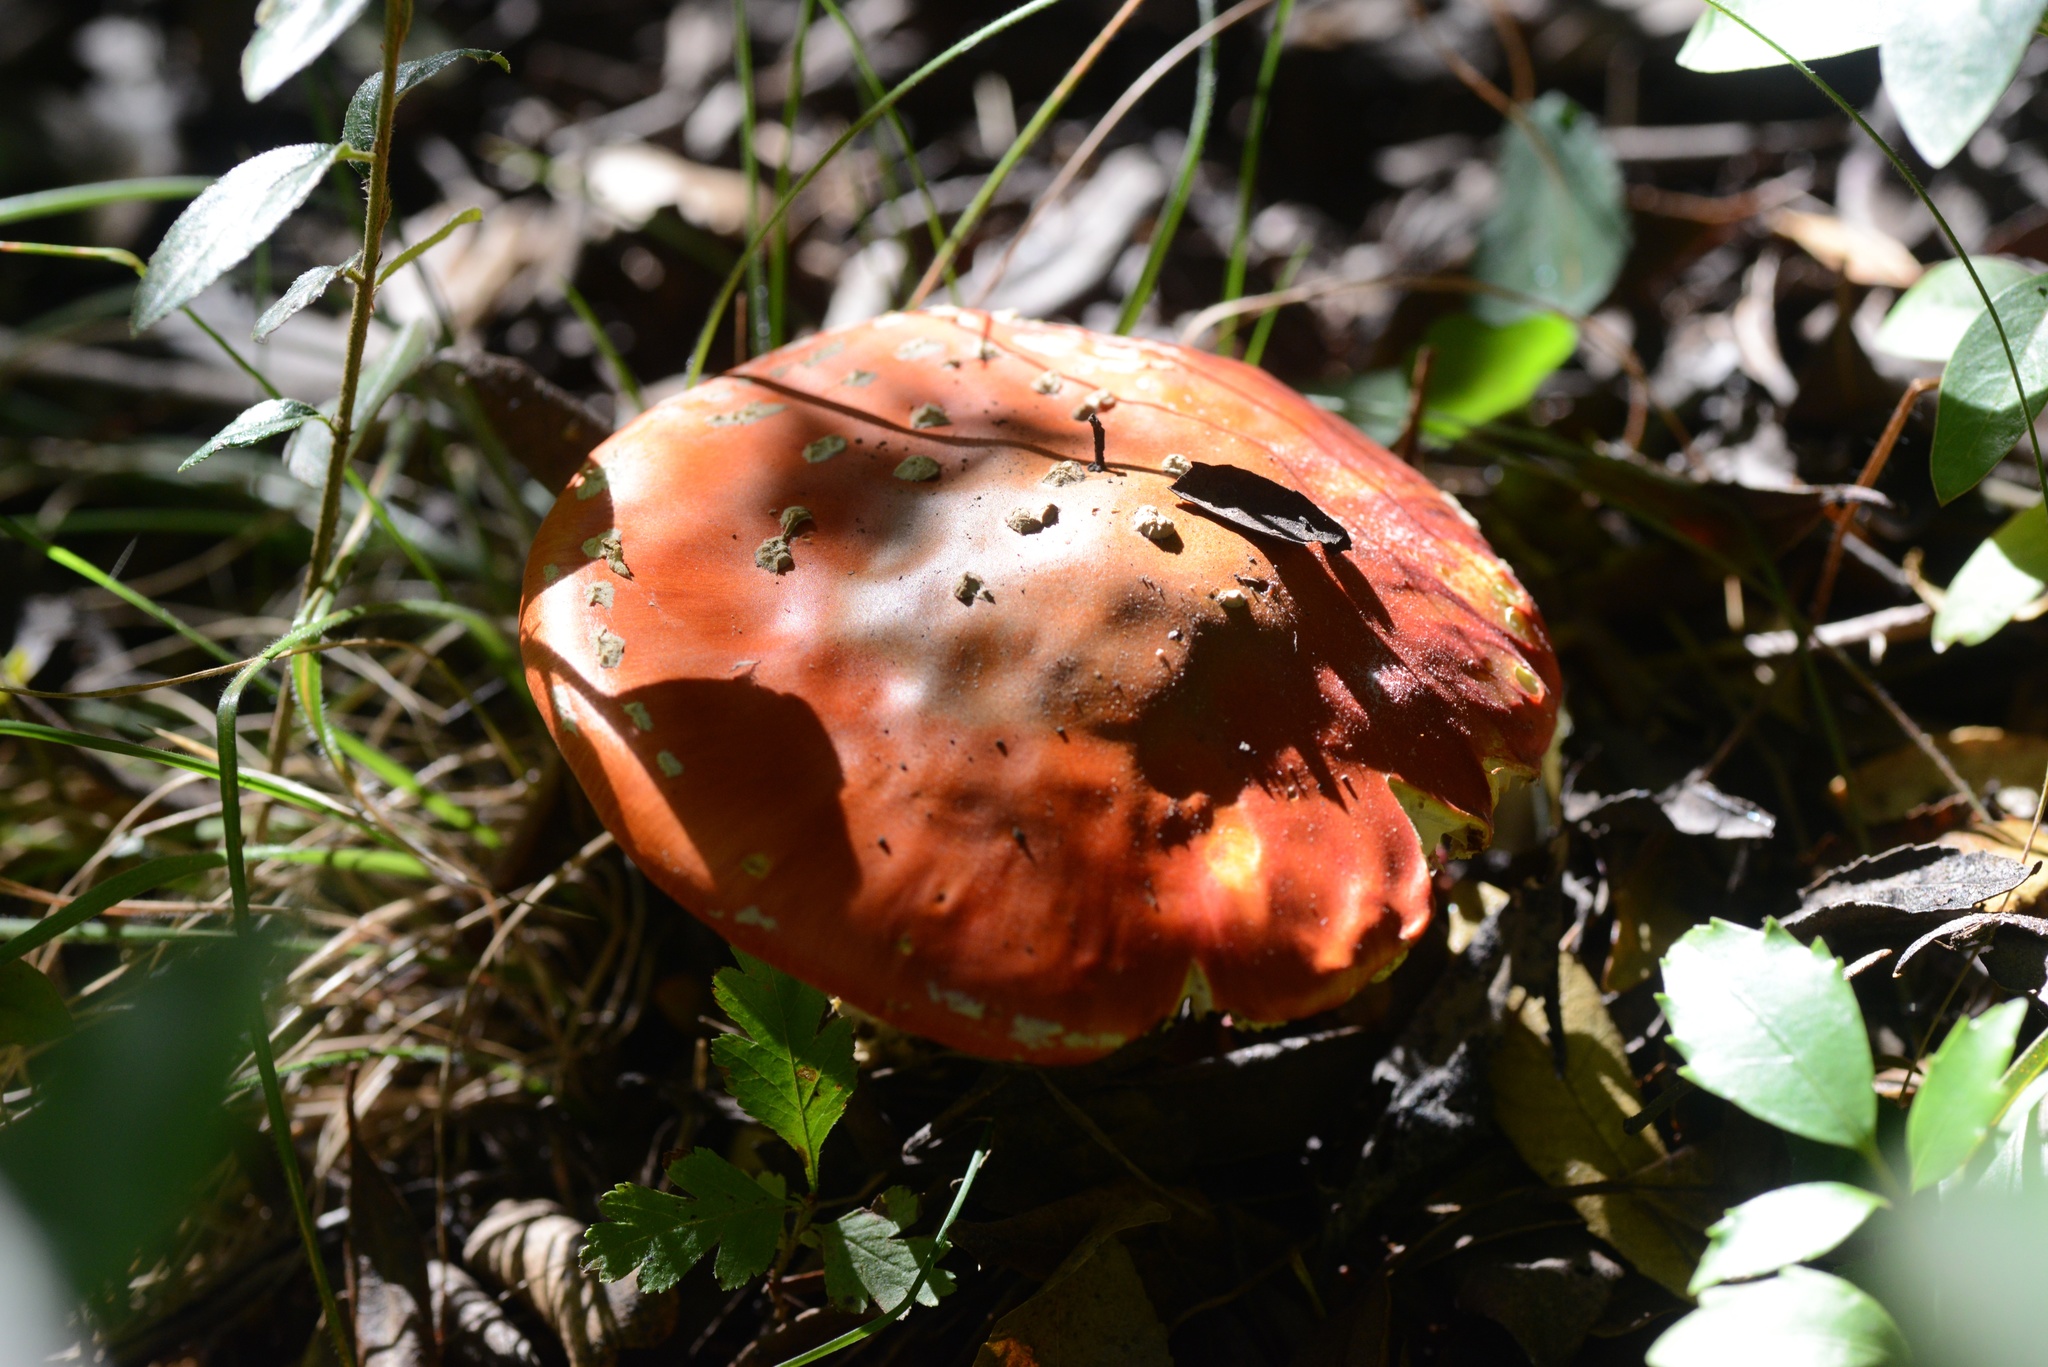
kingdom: Fungi
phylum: Basidiomycota
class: Agaricomycetes
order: Agaricales
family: Amanitaceae
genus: Amanita
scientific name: Amanita muscaria
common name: Fly agaric
